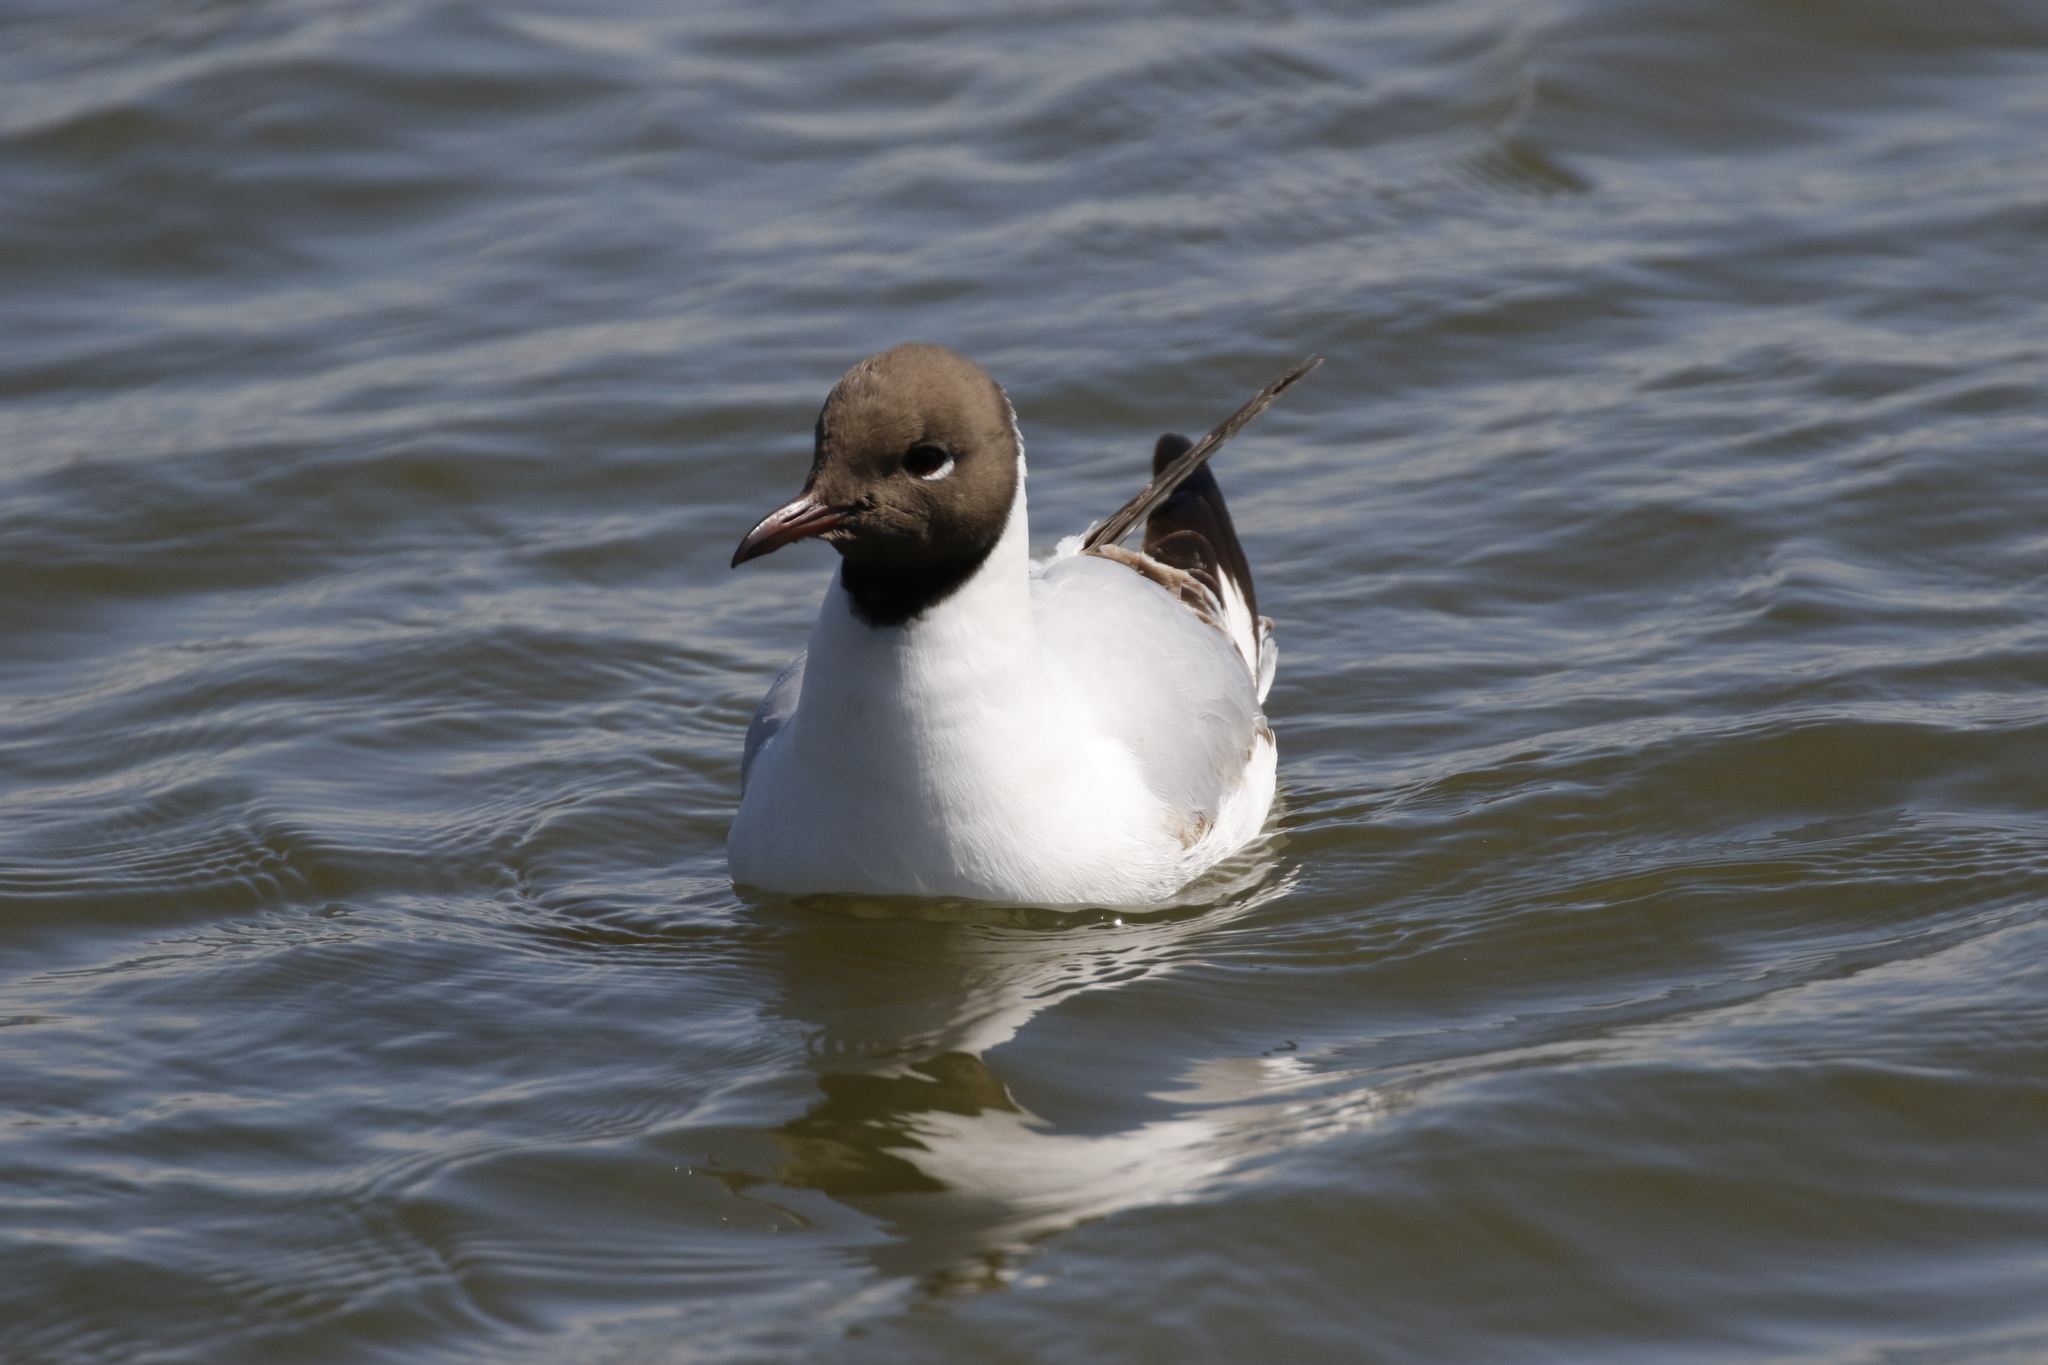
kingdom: Animalia
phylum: Chordata
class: Aves
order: Charadriiformes
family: Laridae
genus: Chroicocephalus
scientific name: Chroicocephalus ridibundus
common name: Black-headed gull
